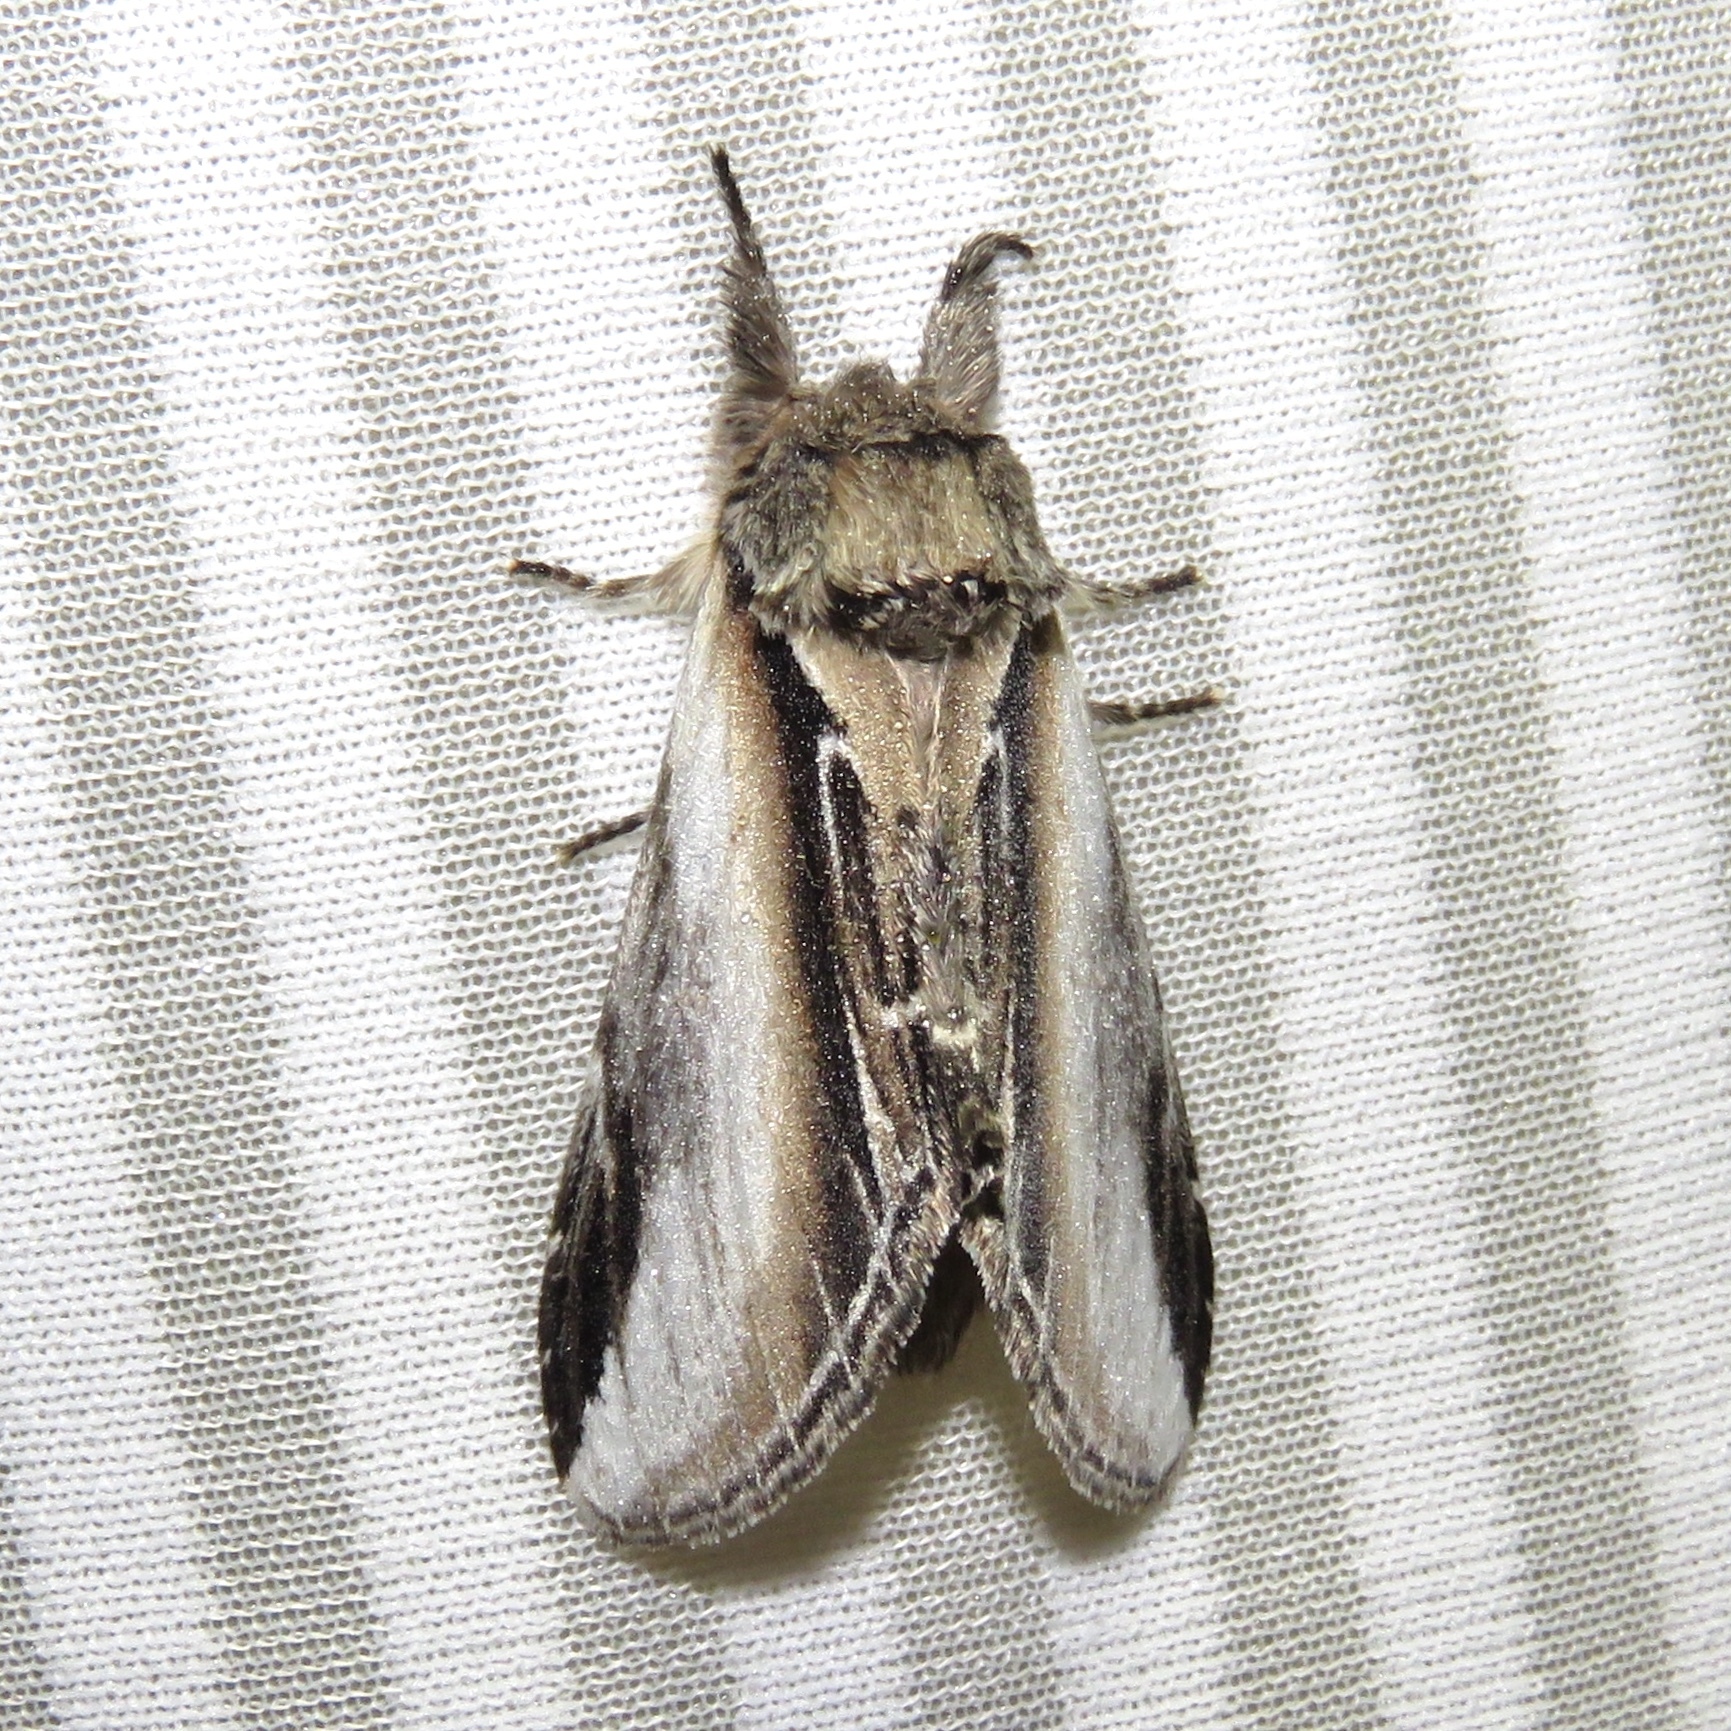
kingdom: Animalia
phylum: Arthropoda
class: Insecta
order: Lepidoptera
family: Notodontidae
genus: Pheosia
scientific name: Pheosia rimosa
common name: Black-rimmed prominent
